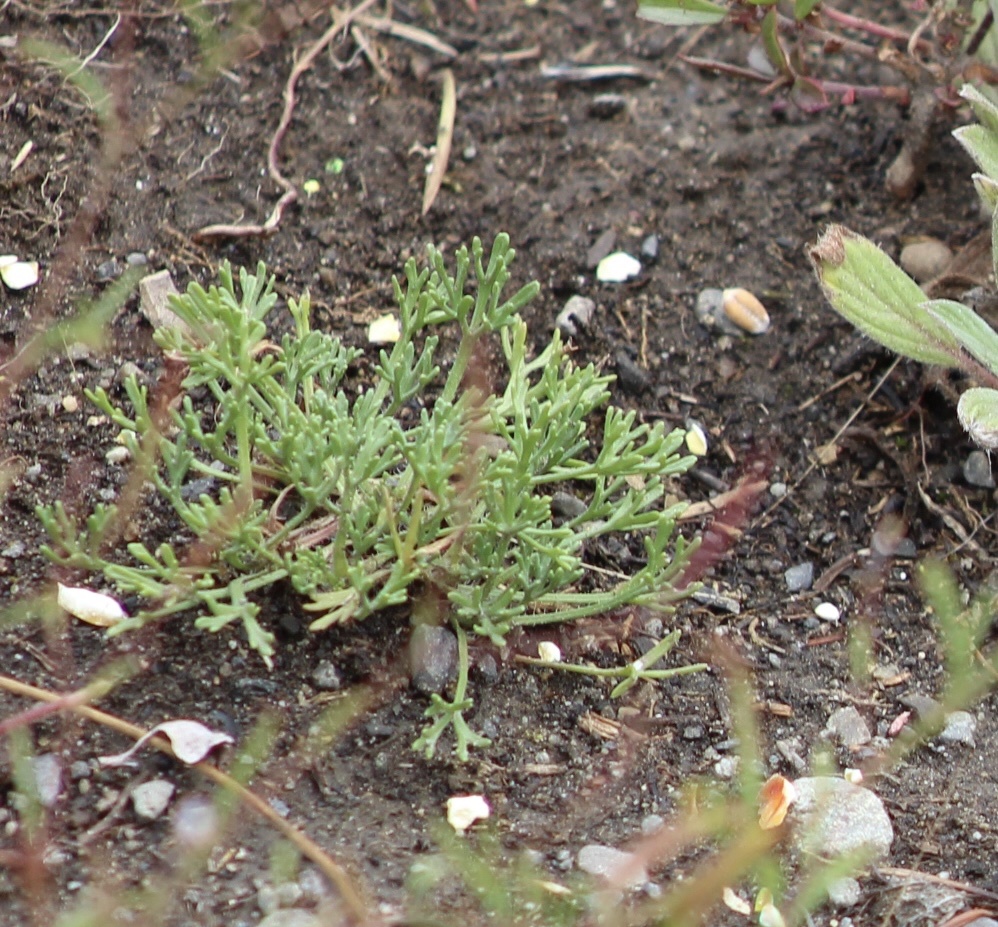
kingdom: Plantae
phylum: Tracheophyta
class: Magnoliopsida
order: Asterales
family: Asteraceae
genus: Erigeron
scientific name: Erigeron compositus
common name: Dwarf mountain fleabane
